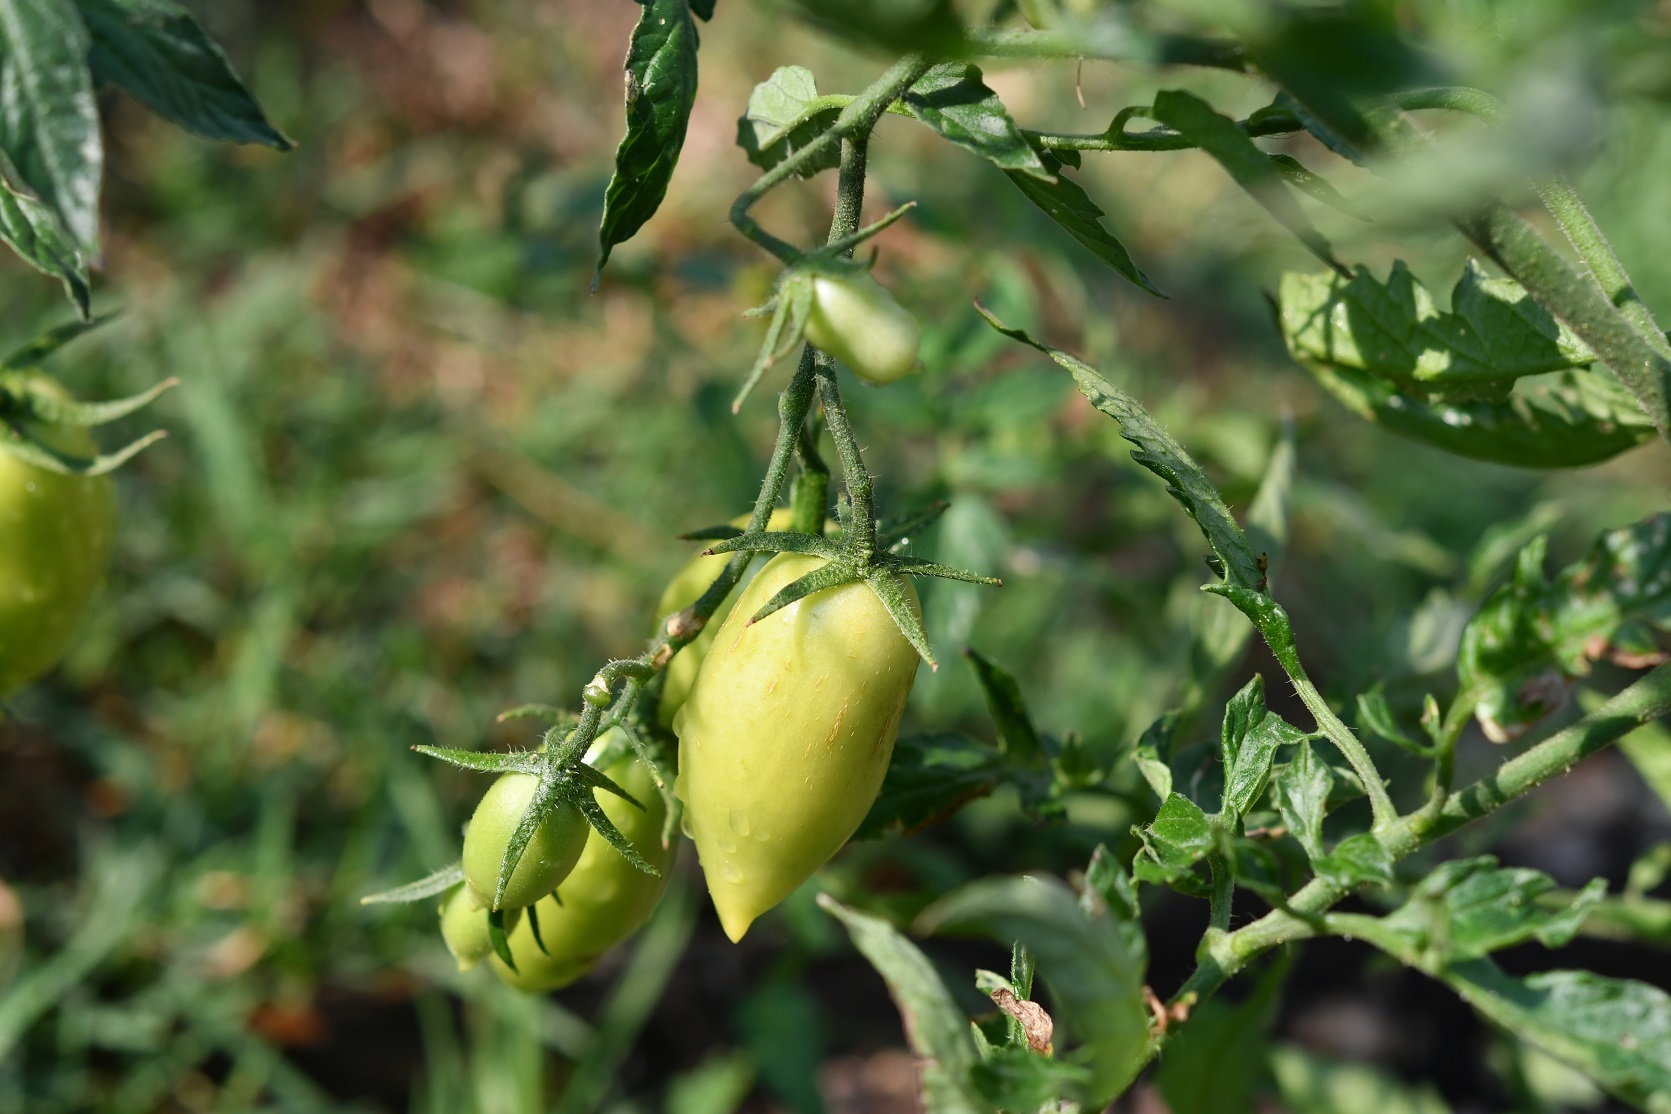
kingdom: Plantae
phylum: Tracheophyta
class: Magnoliopsida
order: Solanales
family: Solanaceae
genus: Solanum
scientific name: Solanum lycopersicum
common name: Garden tomato
